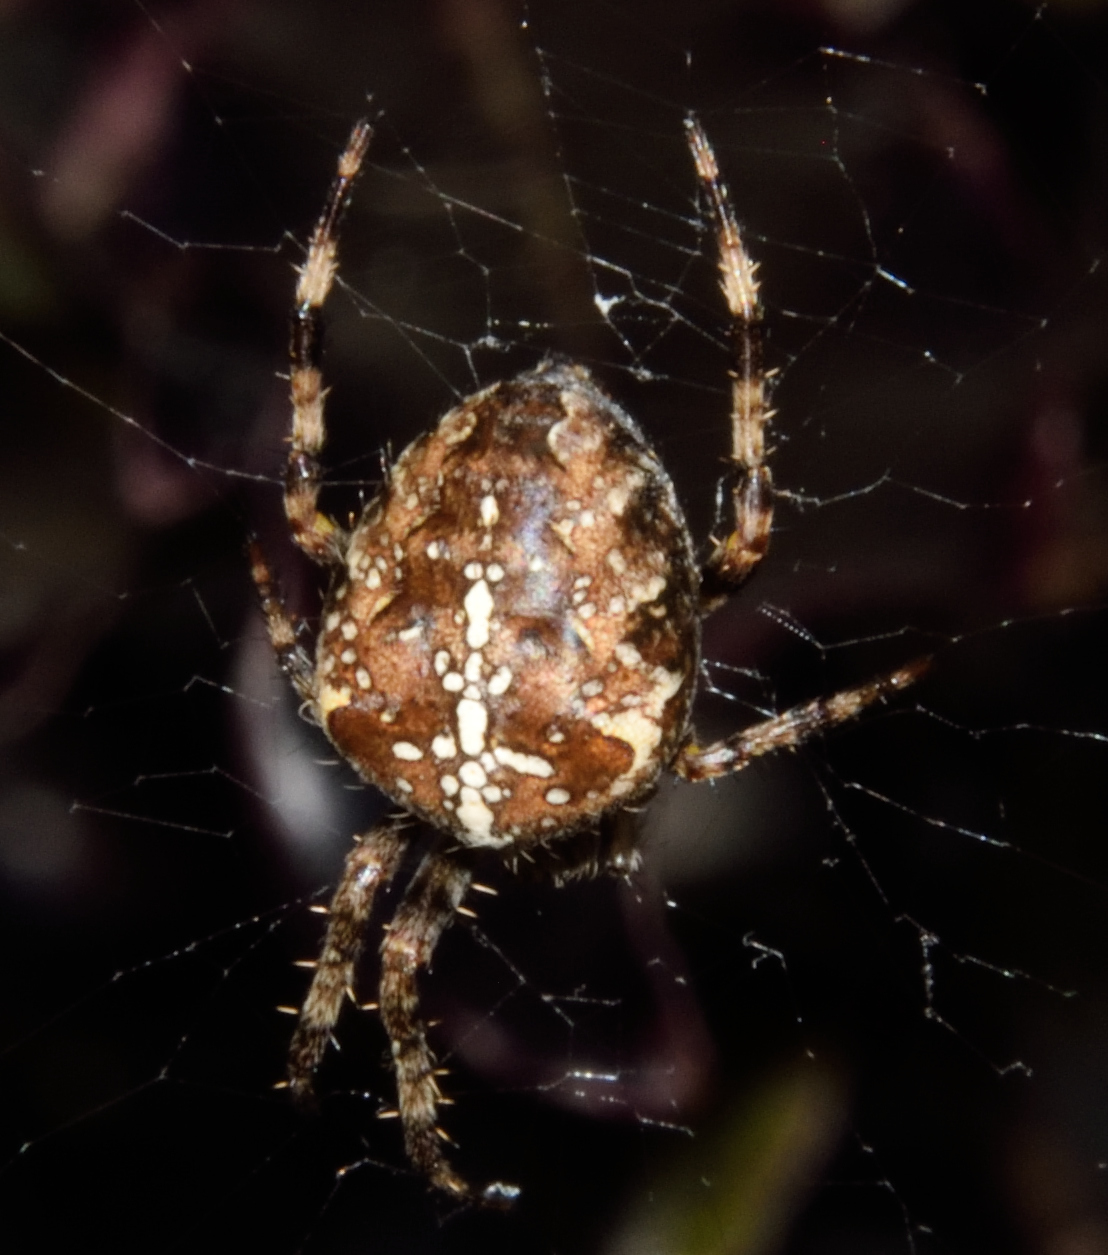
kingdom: Animalia
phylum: Arthropoda
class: Arachnida
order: Araneae
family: Araneidae
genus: Araneus
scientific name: Araneus diadematus
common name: Cross orbweaver
